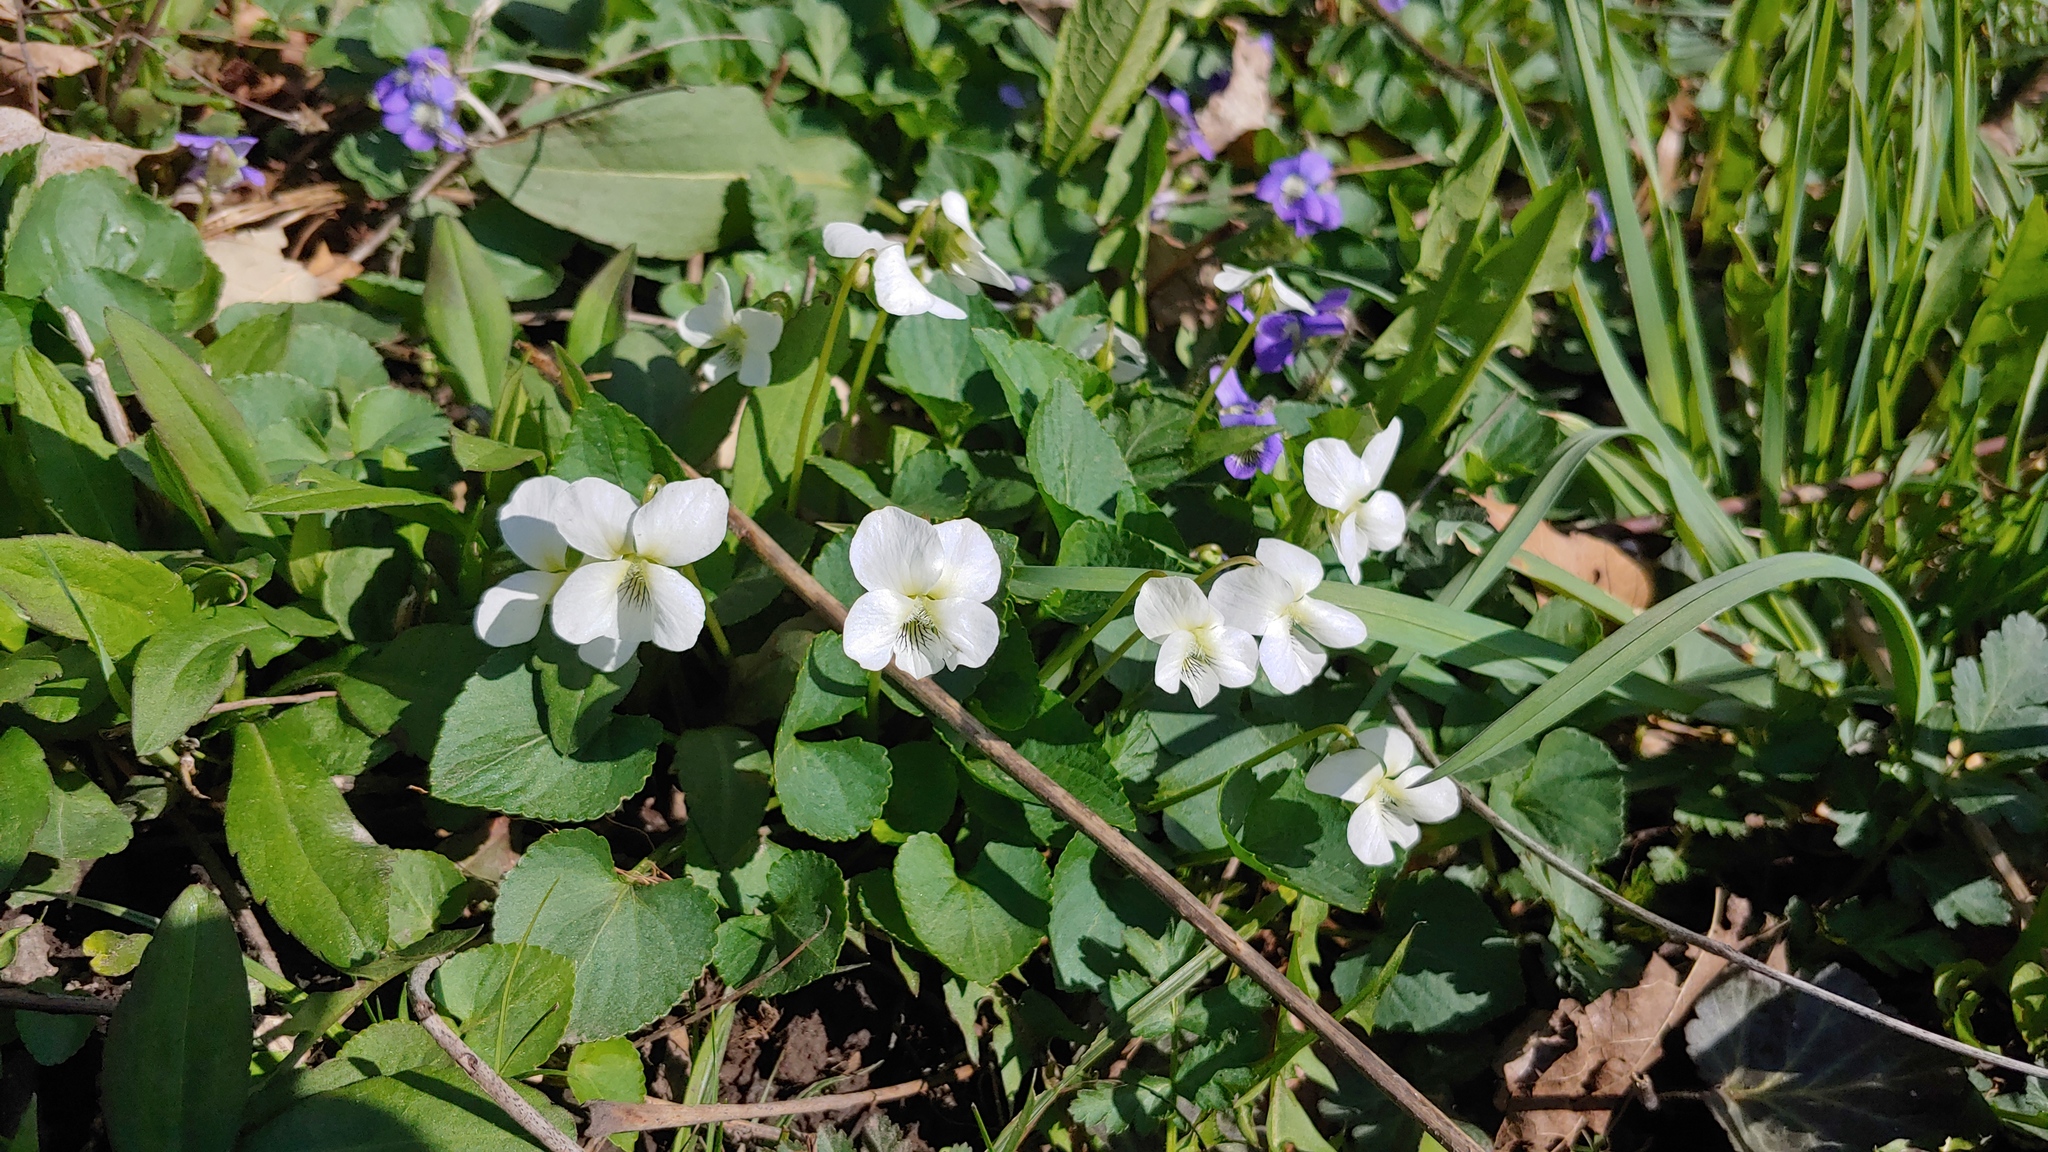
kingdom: Plantae
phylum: Tracheophyta
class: Magnoliopsida
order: Malpighiales
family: Violaceae
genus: Viola
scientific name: Viola sororia
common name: Dooryard violet
